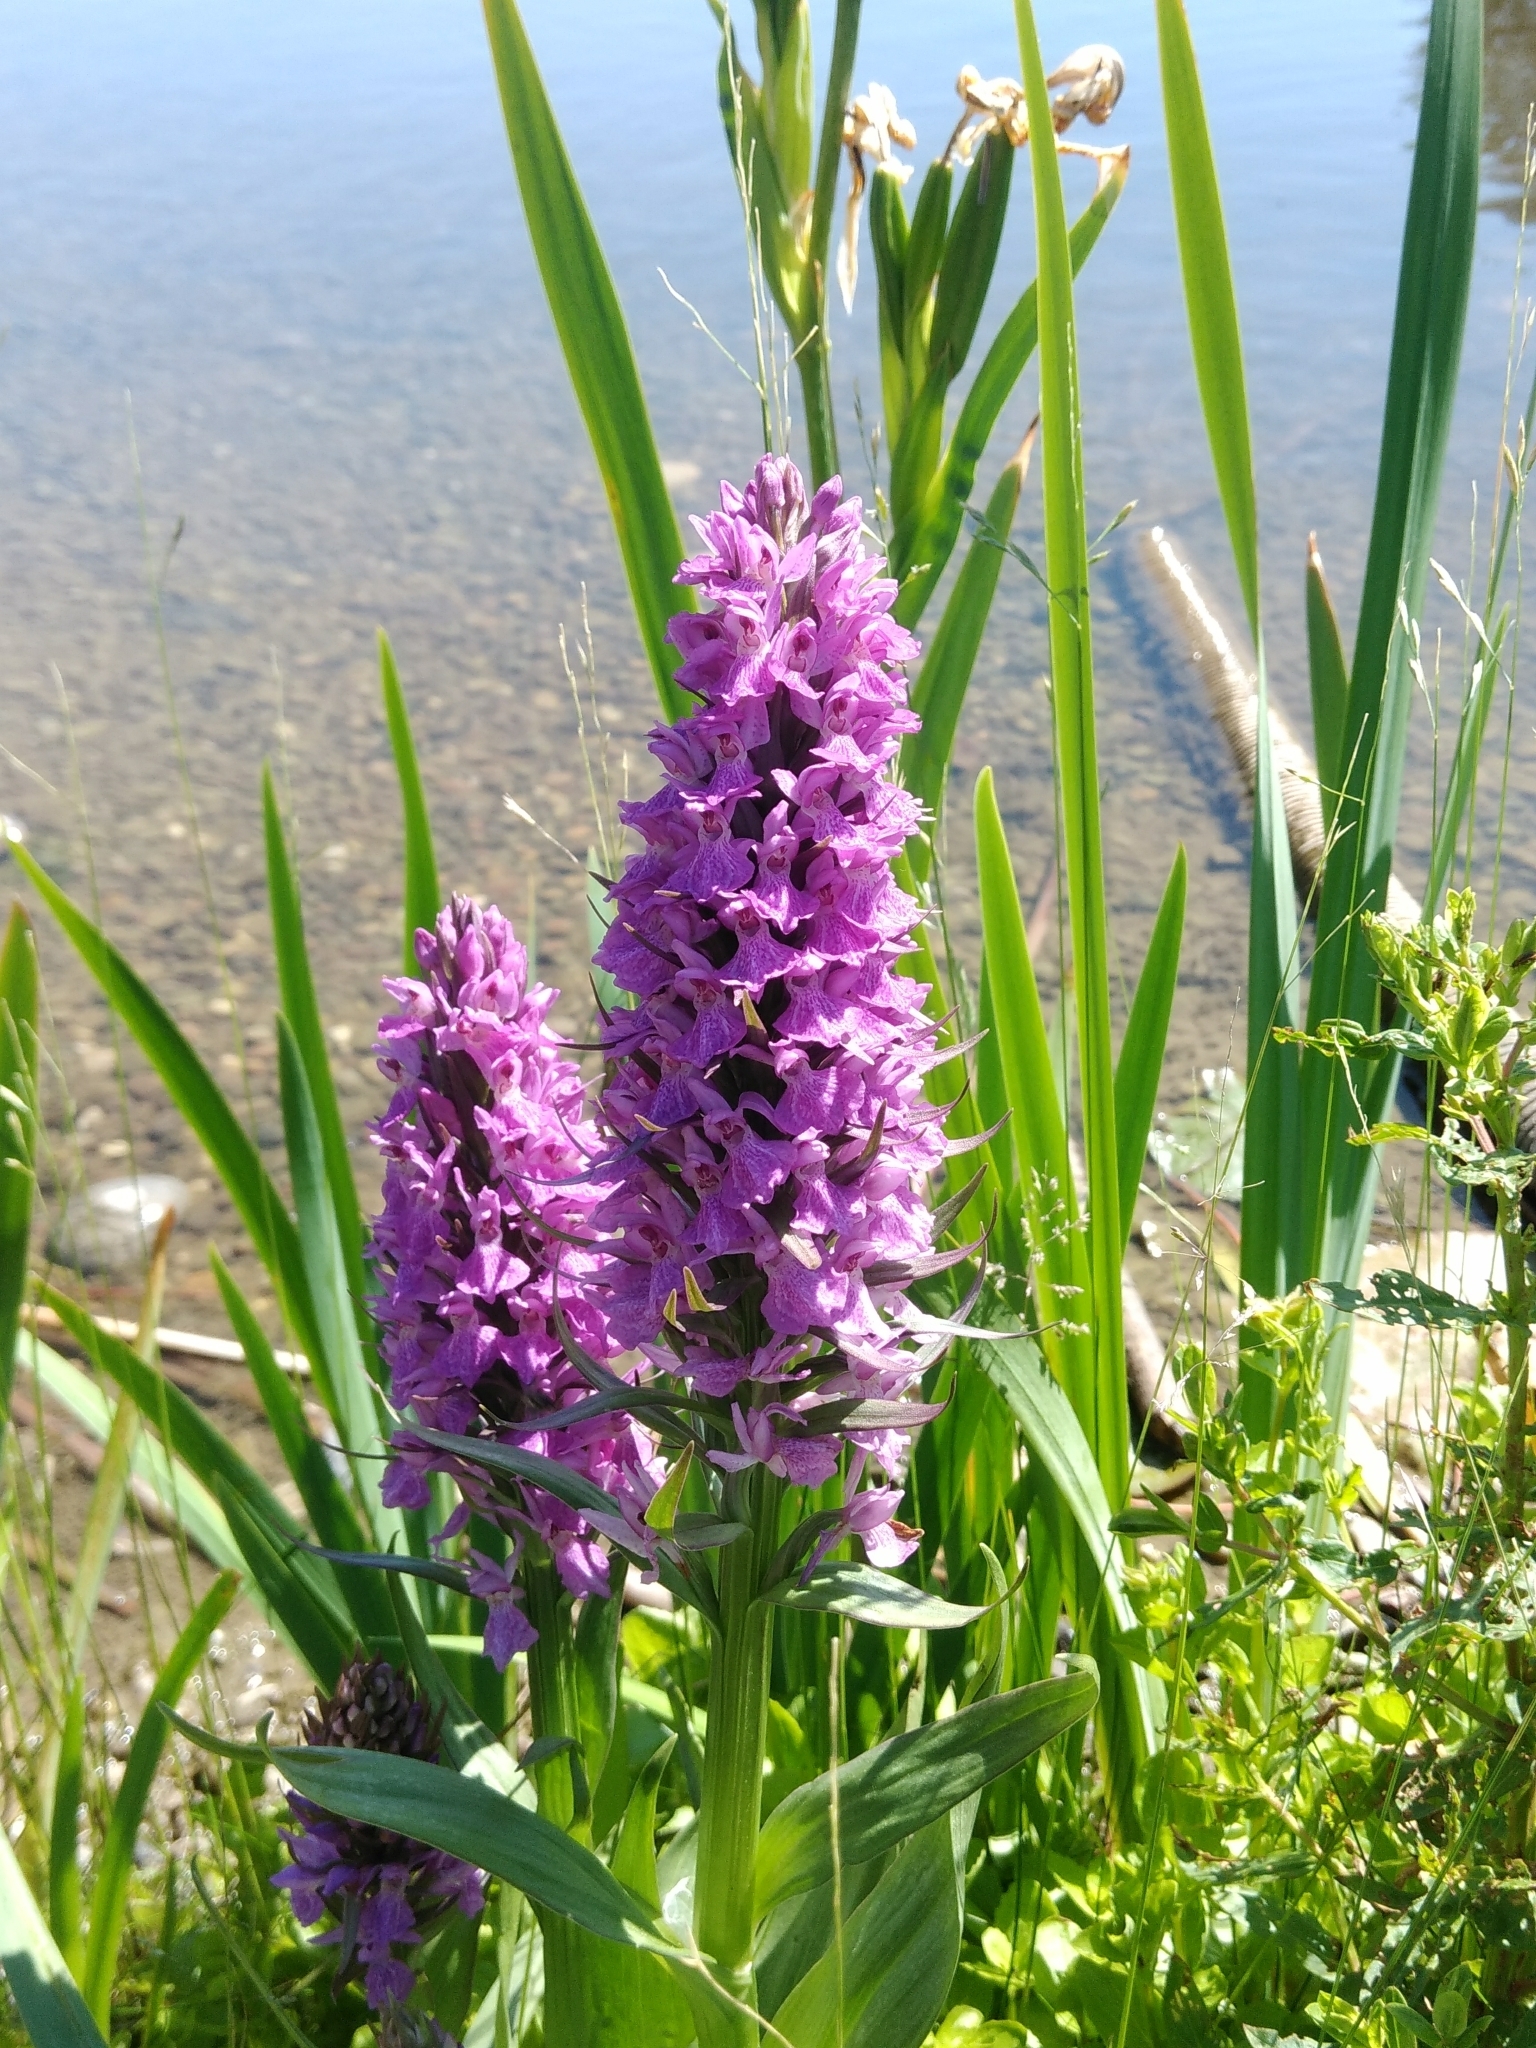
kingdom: Plantae
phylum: Tracheophyta
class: Liliopsida
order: Asparagales
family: Orchidaceae
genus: Dactylorhiza
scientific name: Dactylorhiza majalis
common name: Marsh orchid
